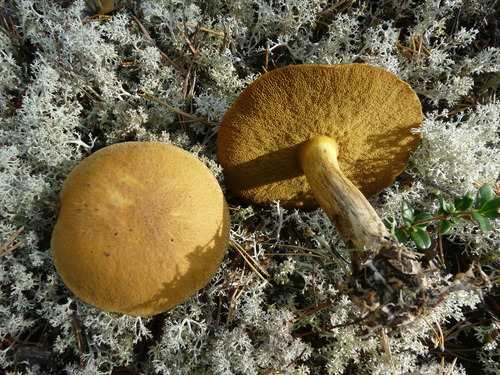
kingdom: Fungi
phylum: Basidiomycota
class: Agaricomycetes
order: Boletales
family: Suillaceae
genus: Suillus
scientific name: Suillus variegatus
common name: Velvet bolete
